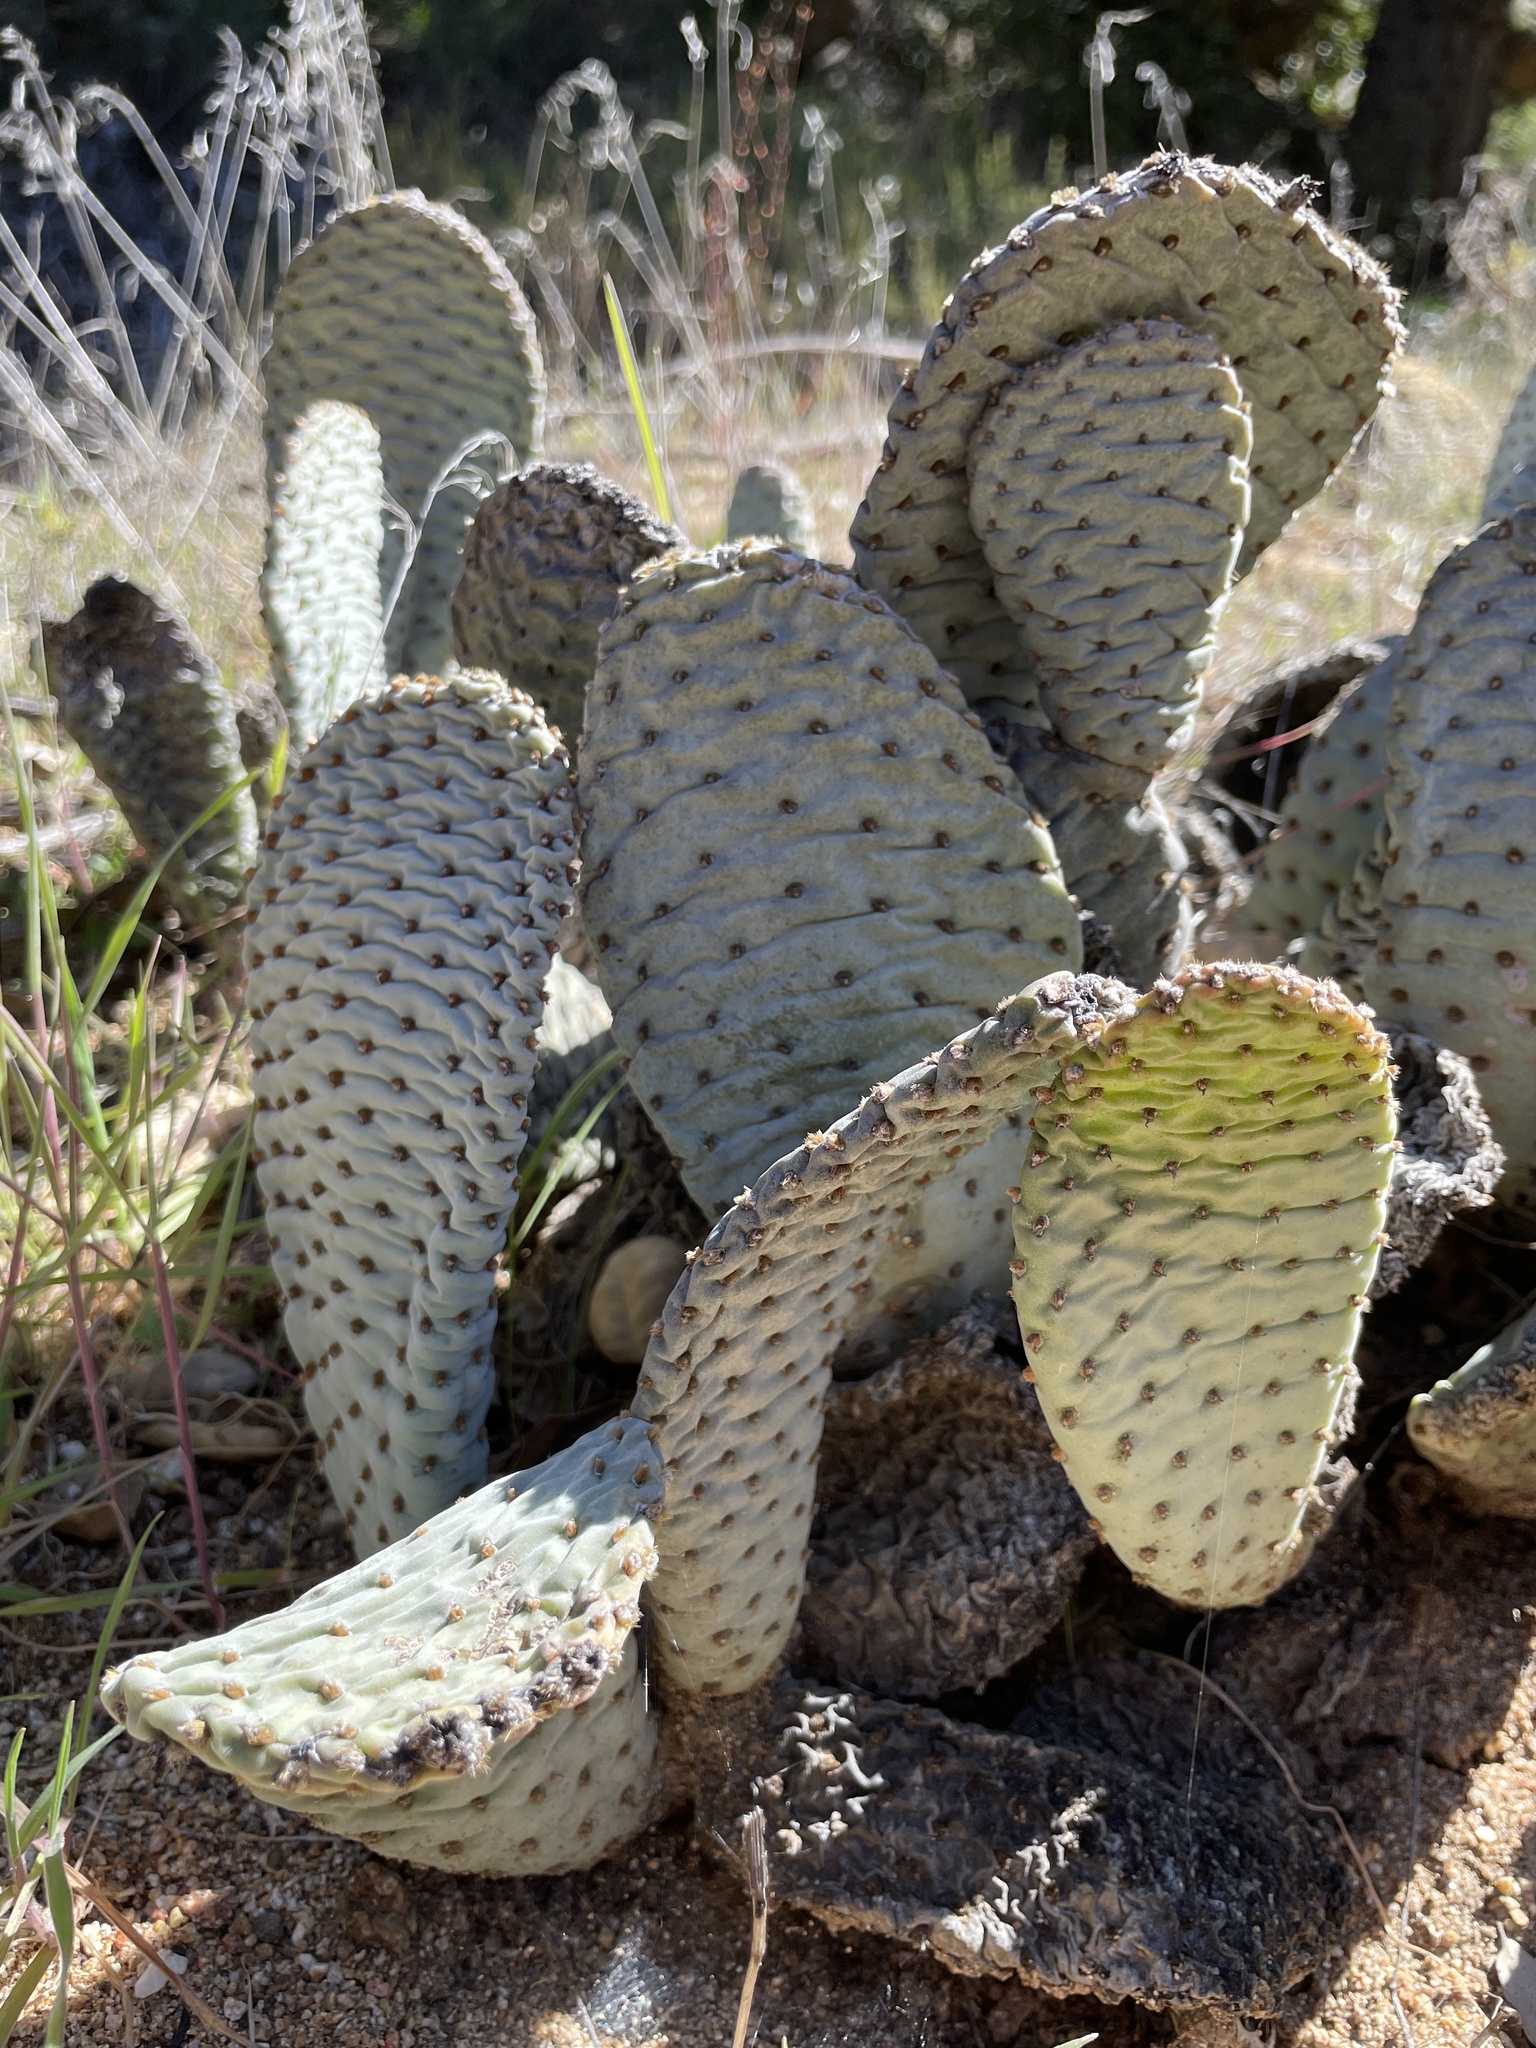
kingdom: Plantae
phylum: Tracheophyta
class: Magnoliopsida
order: Caryophyllales
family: Cactaceae
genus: Opuntia
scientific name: Opuntia basilaris
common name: Beavertail prickly-pear
